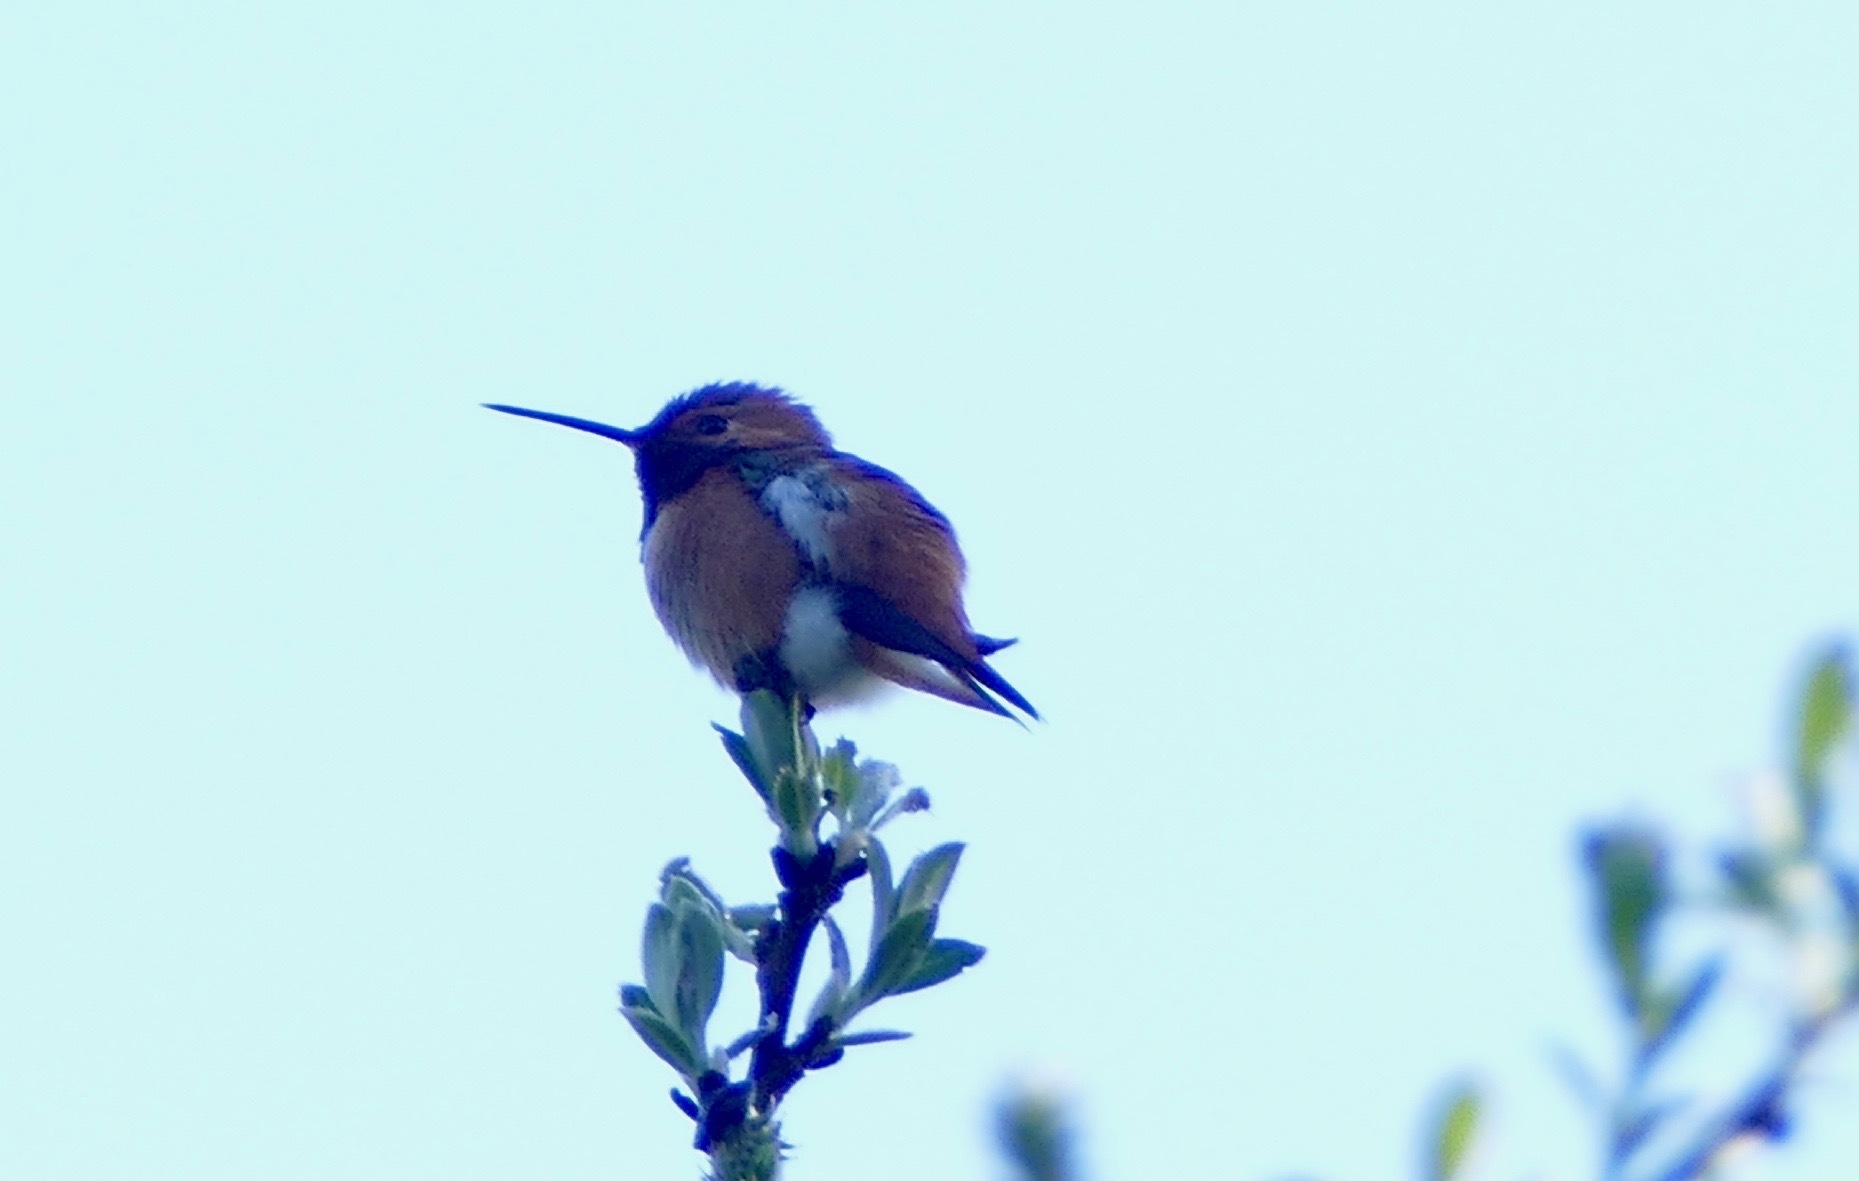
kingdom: Animalia
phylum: Chordata
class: Aves
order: Apodiformes
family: Trochilidae
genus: Selasphorus
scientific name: Selasphorus
